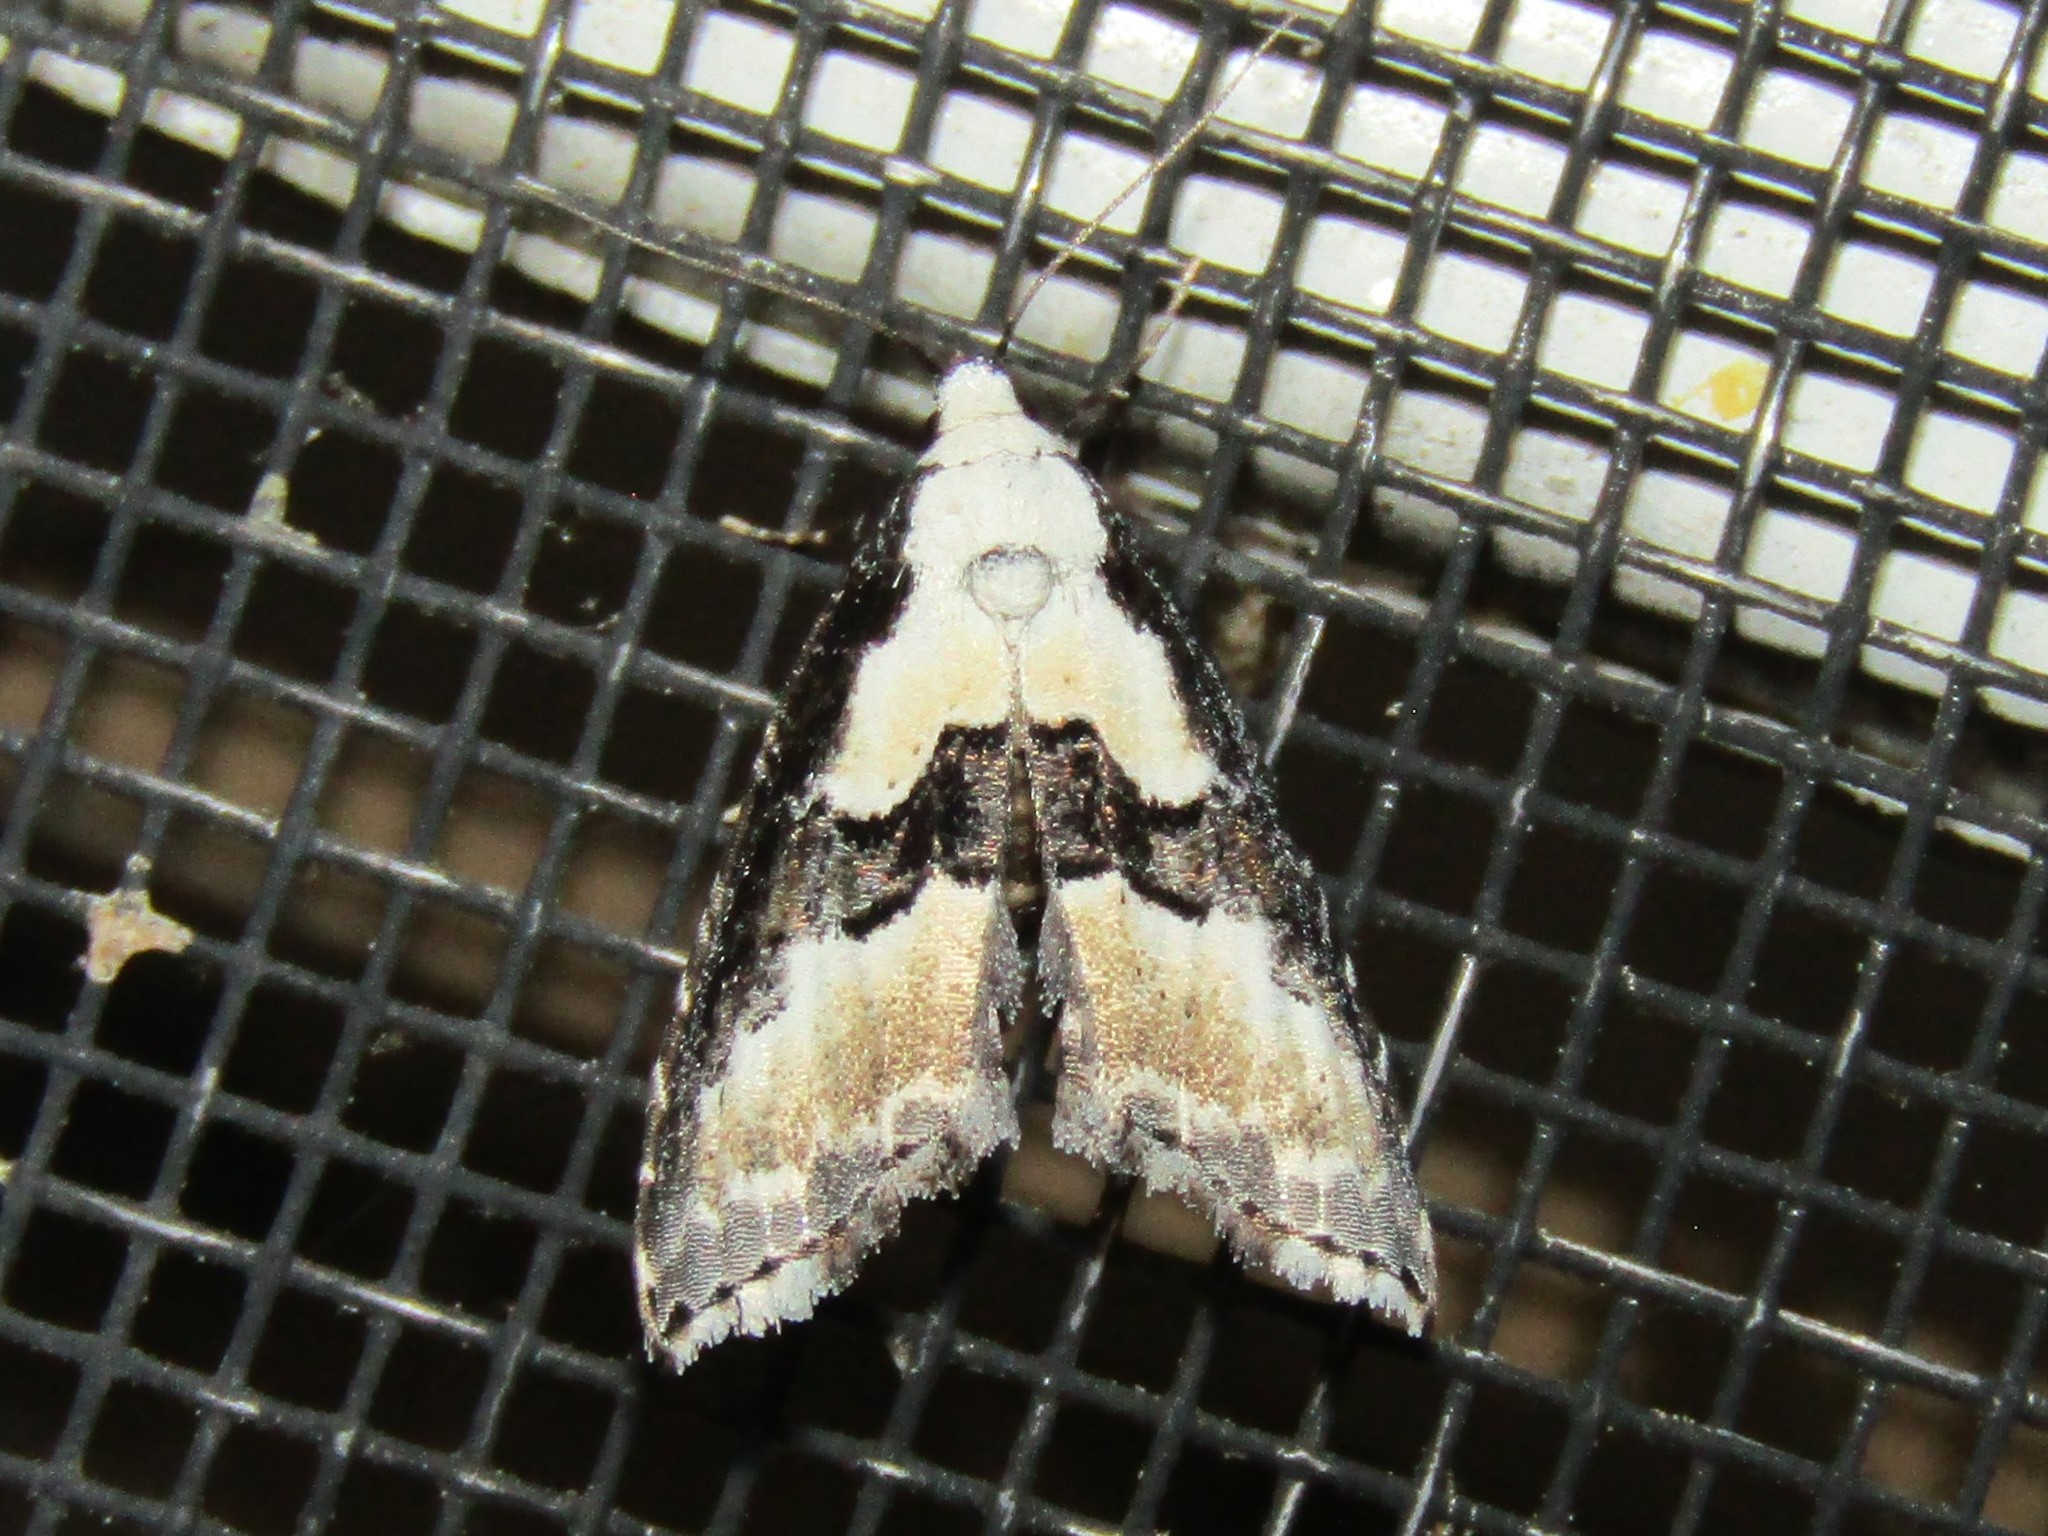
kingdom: Animalia
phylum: Arthropoda
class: Insecta
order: Lepidoptera
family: Noctuidae
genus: Nigetia
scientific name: Nigetia formosalis
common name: Thin-winged owlet
